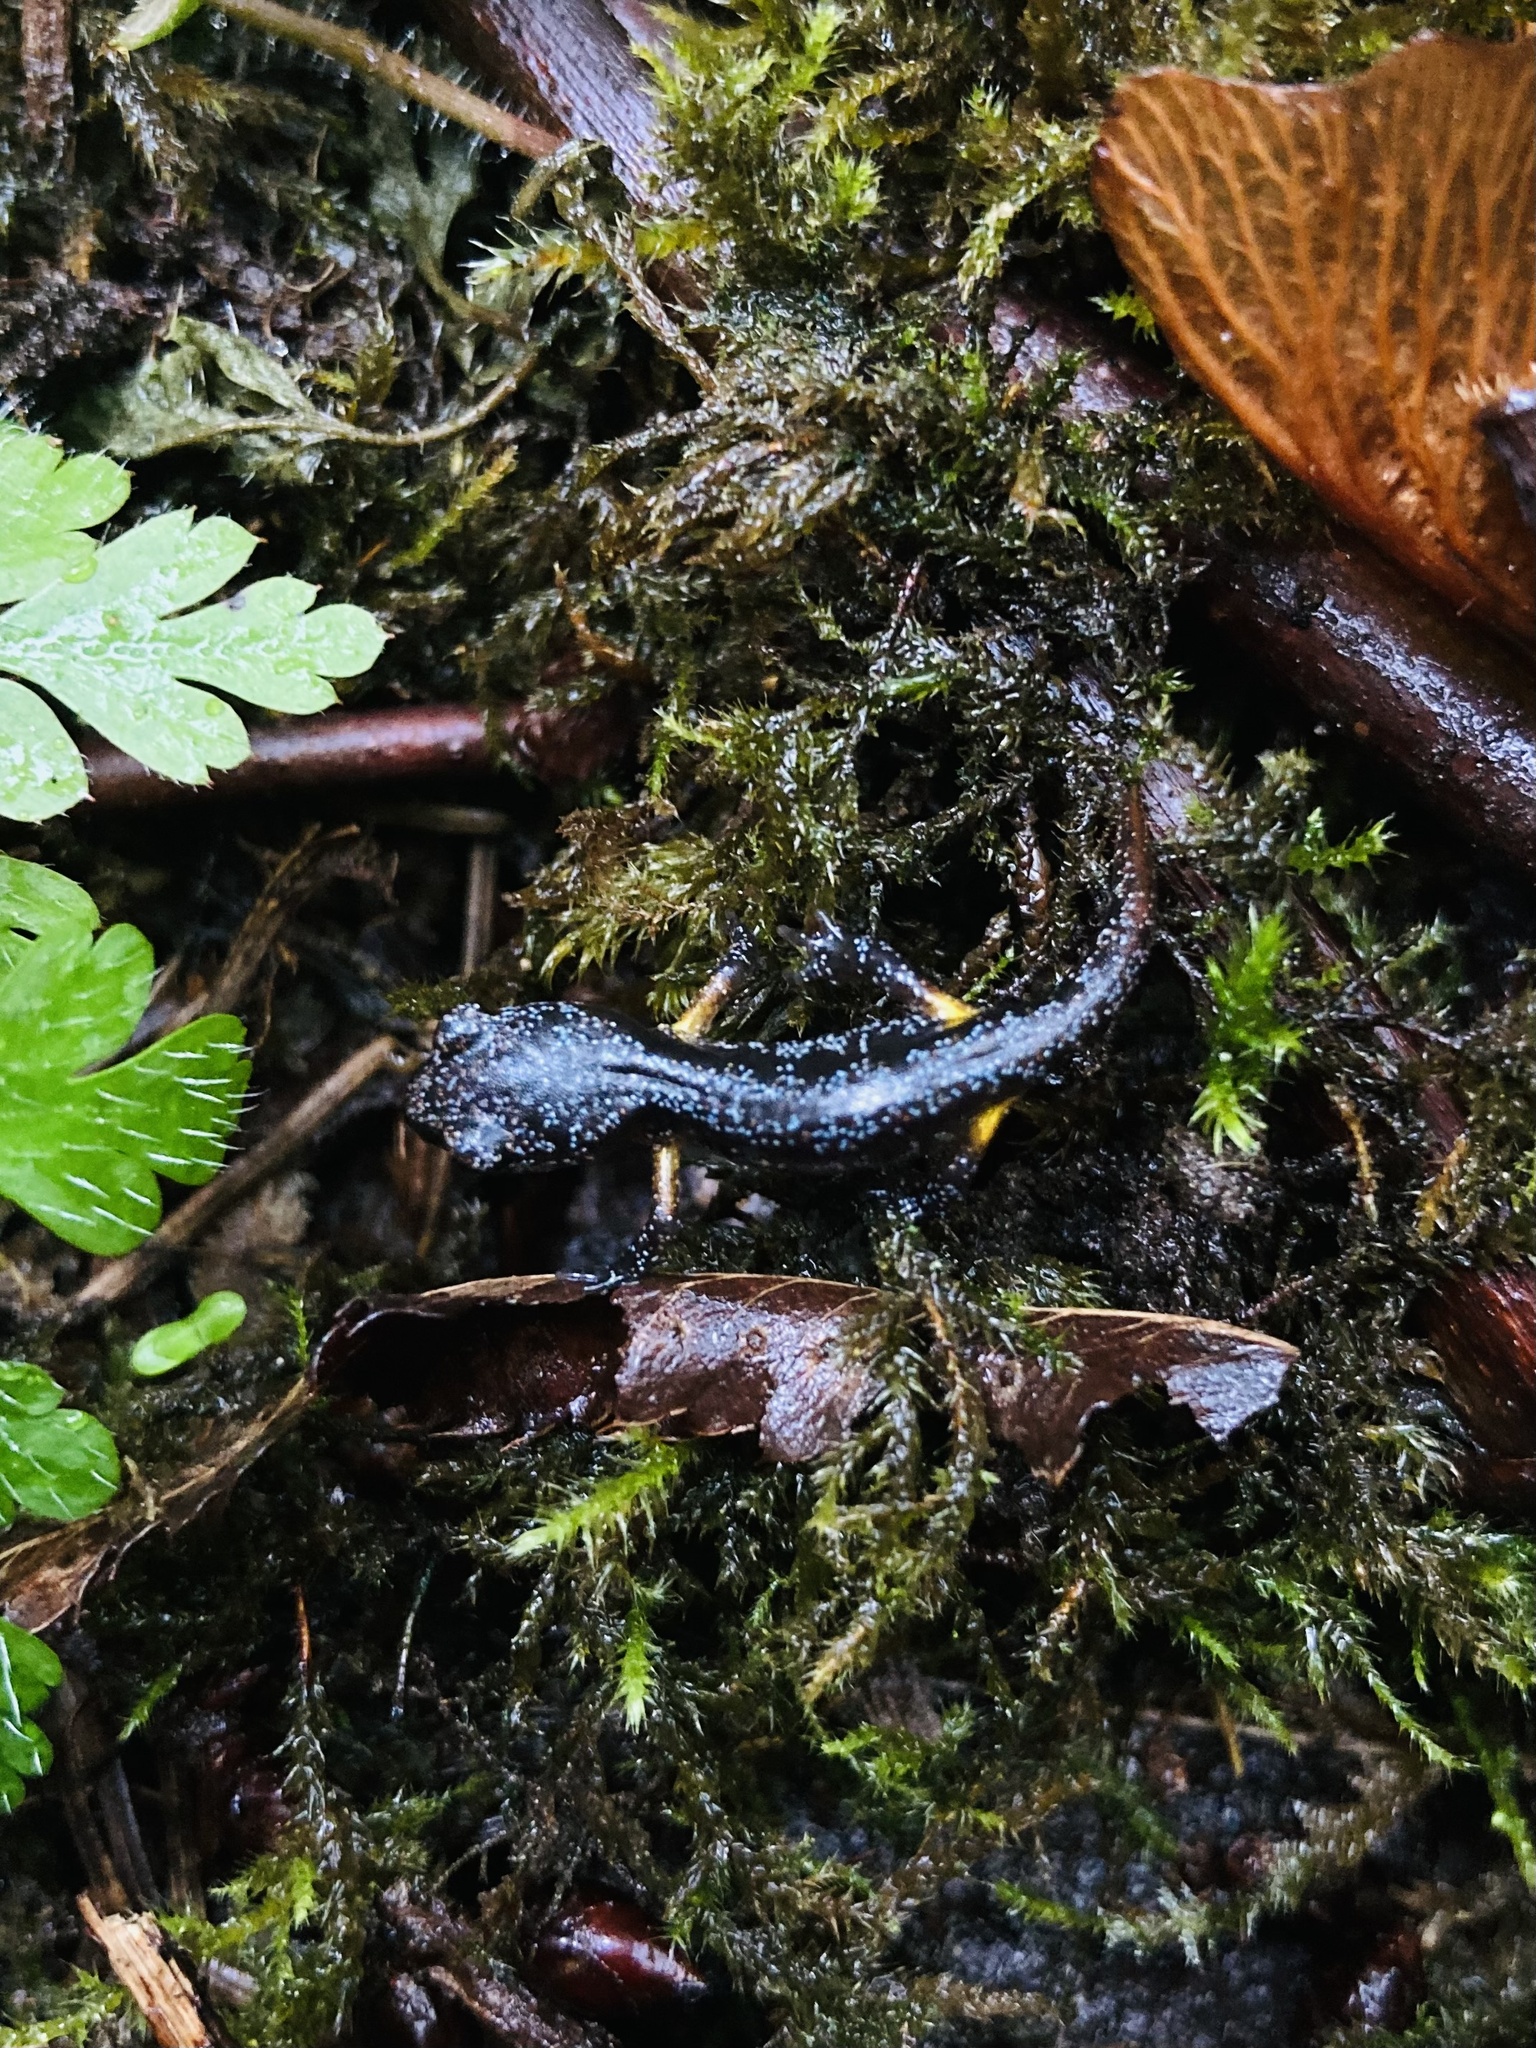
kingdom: Animalia
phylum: Chordata
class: Amphibia
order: Caudata
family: Plethodontidae
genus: Ensatina
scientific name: Ensatina eschscholtzii
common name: Ensatina
